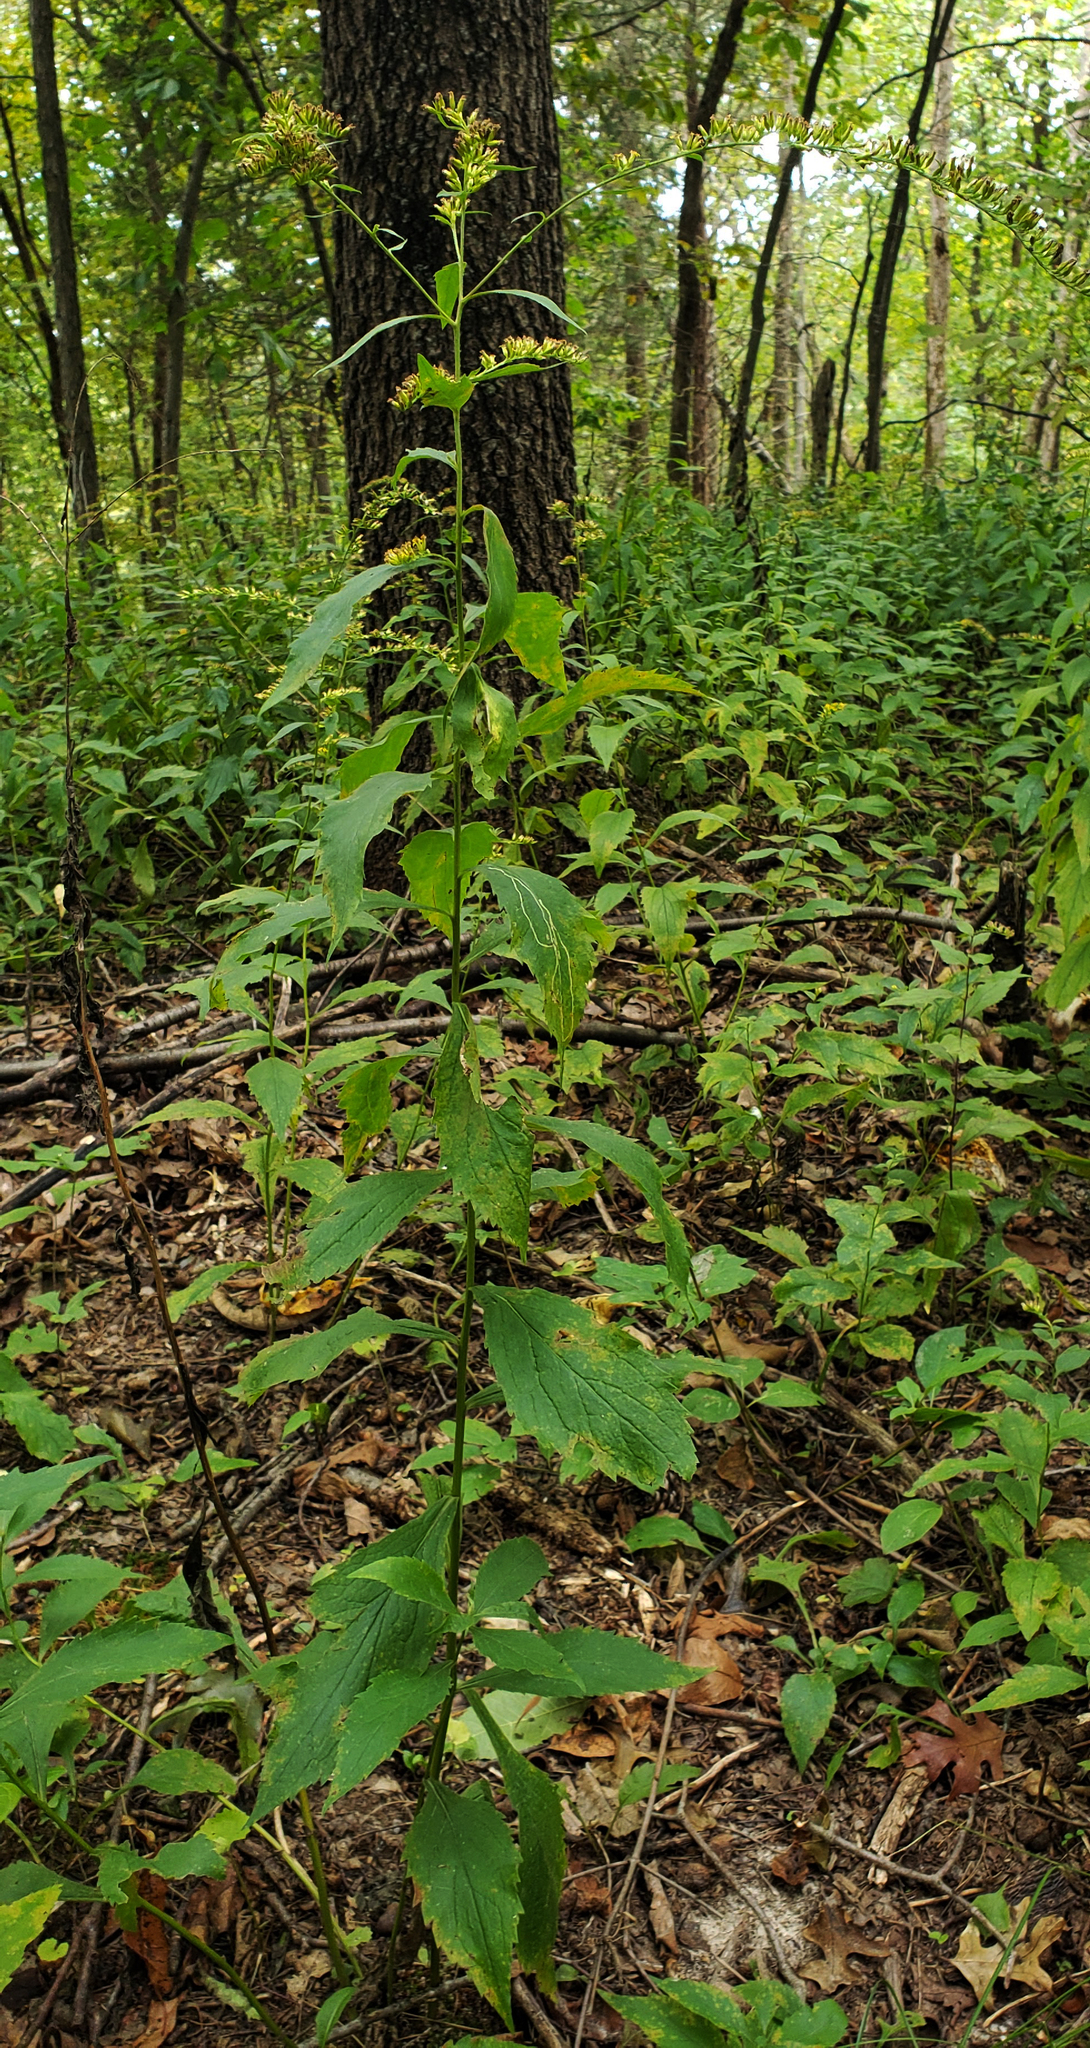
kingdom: Plantae
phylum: Tracheophyta
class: Magnoliopsida
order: Asterales
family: Asteraceae
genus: Solidago
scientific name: Solidago ulmifolia
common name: Elm-leaf goldenrod
